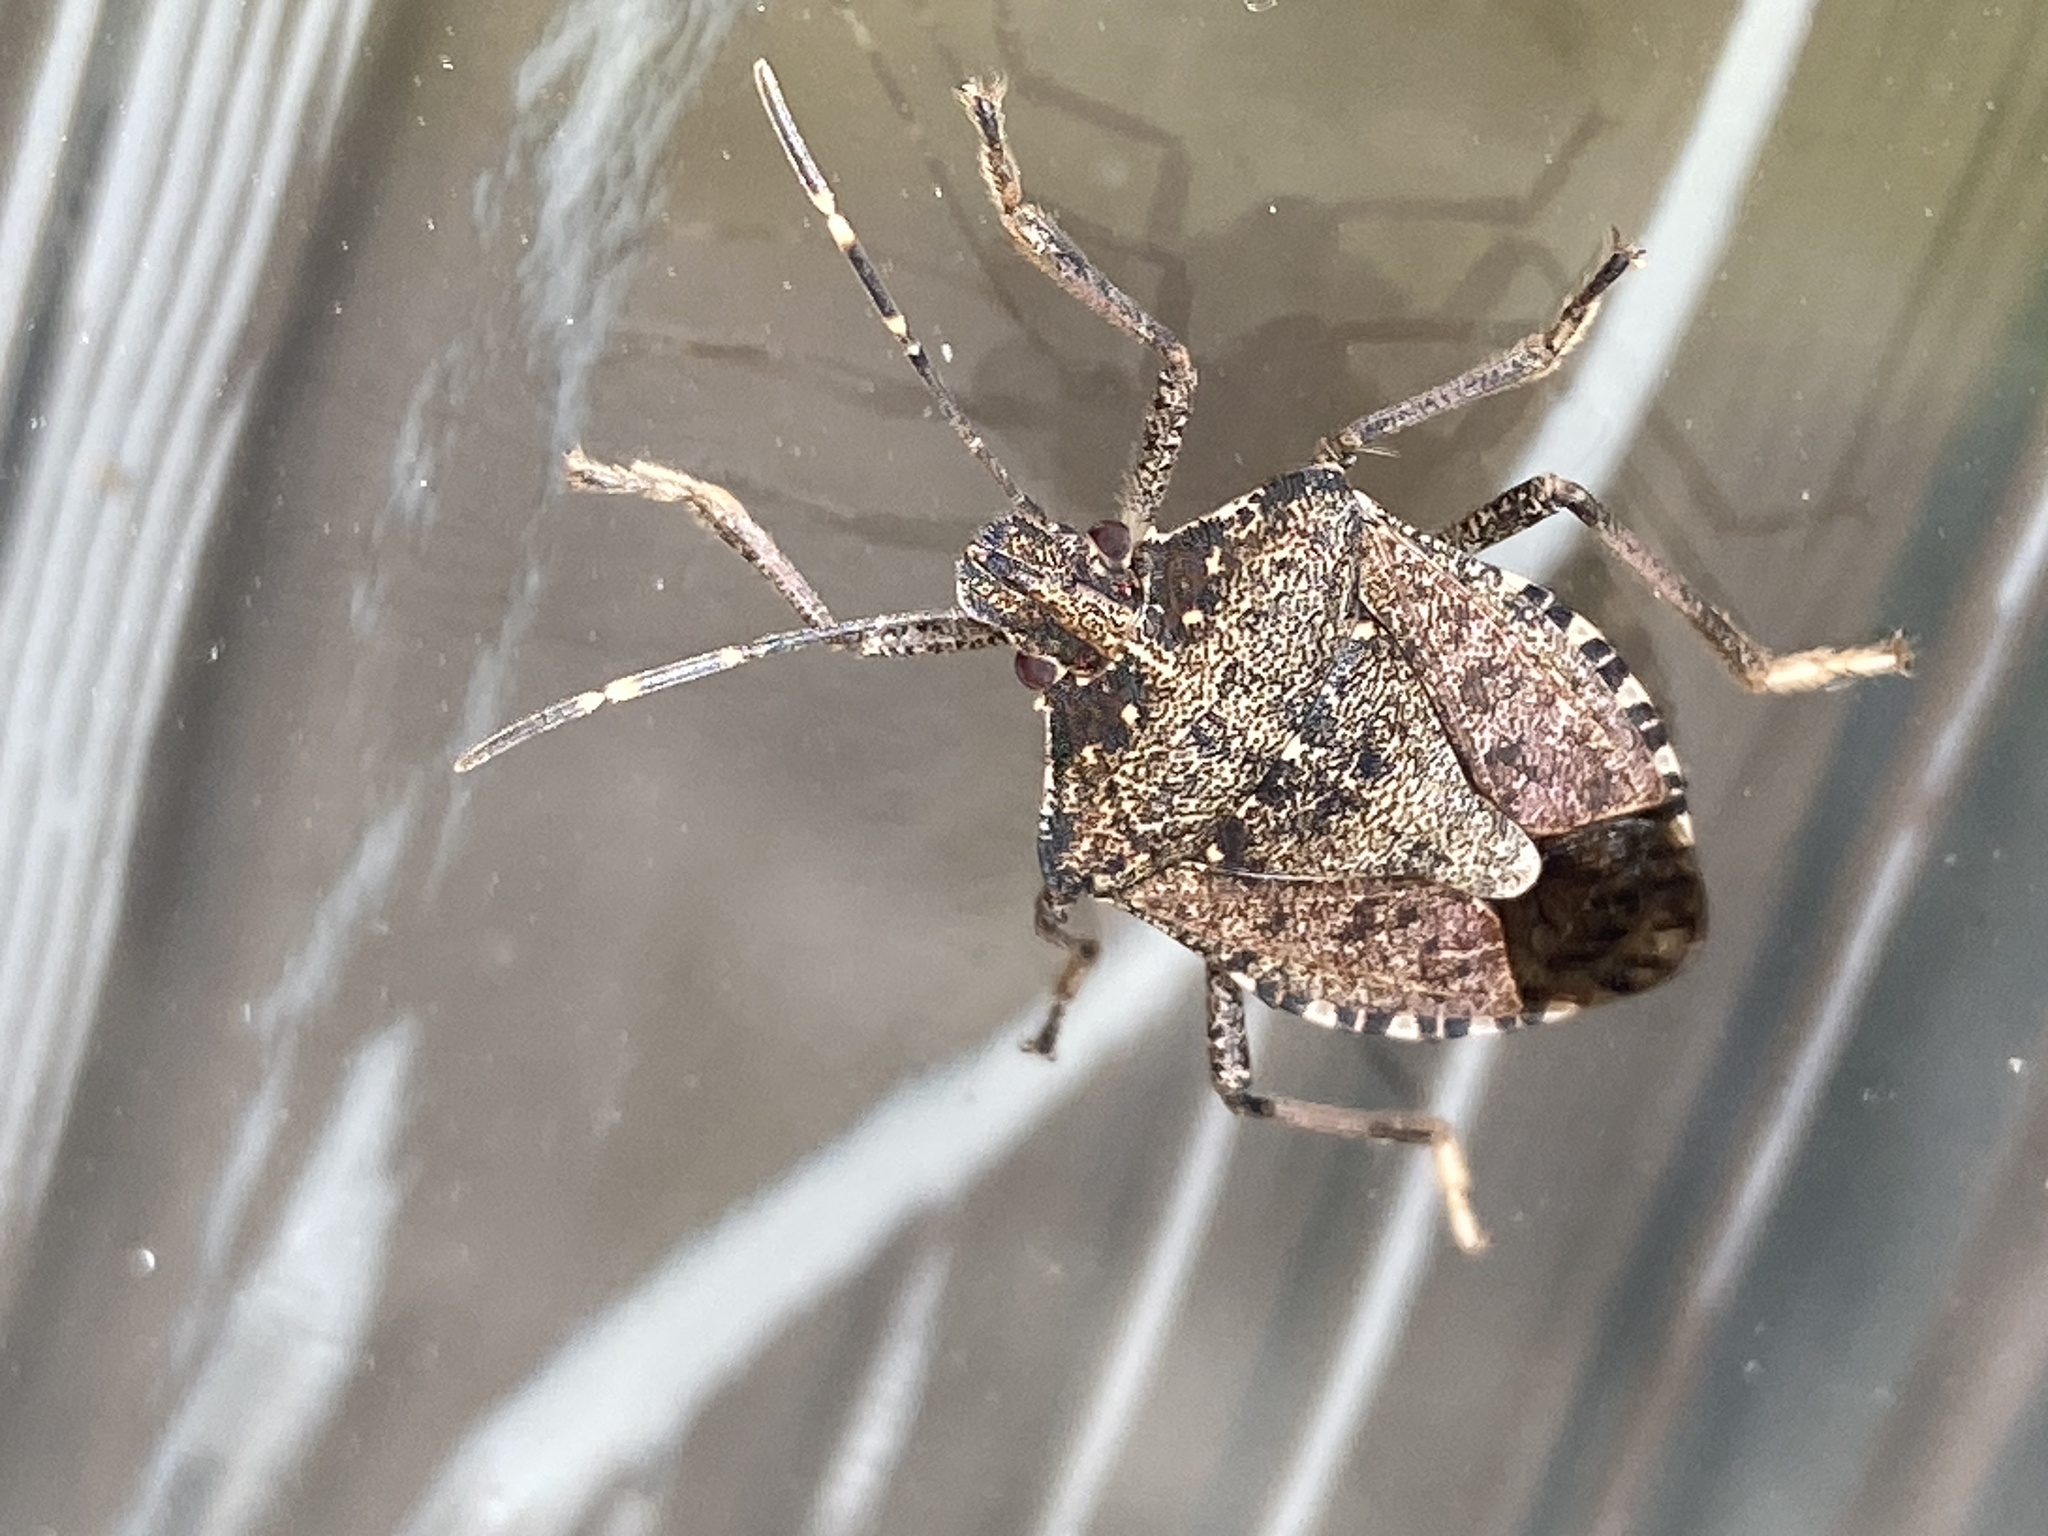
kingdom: Animalia
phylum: Arthropoda
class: Insecta
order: Hemiptera
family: Pentatomidae
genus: Halyomorpha
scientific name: Halyomorpha halys
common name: Brown marmorated stink bug
